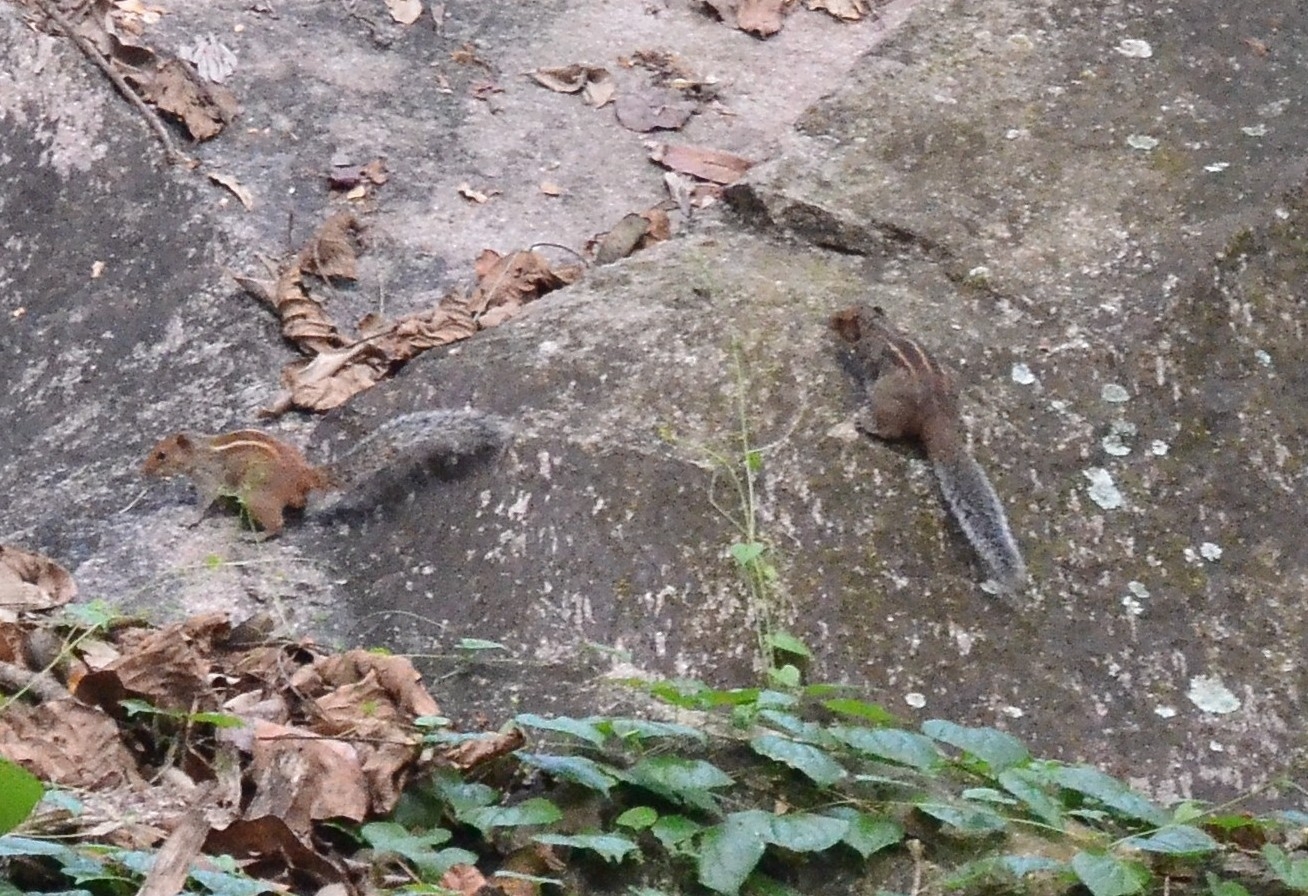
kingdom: Animalia
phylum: Chordata
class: Mammalia
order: Rodentia
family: Sciuridae
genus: Funambulus
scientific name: Funambulus tristriatus
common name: Jungle palm squirrel
